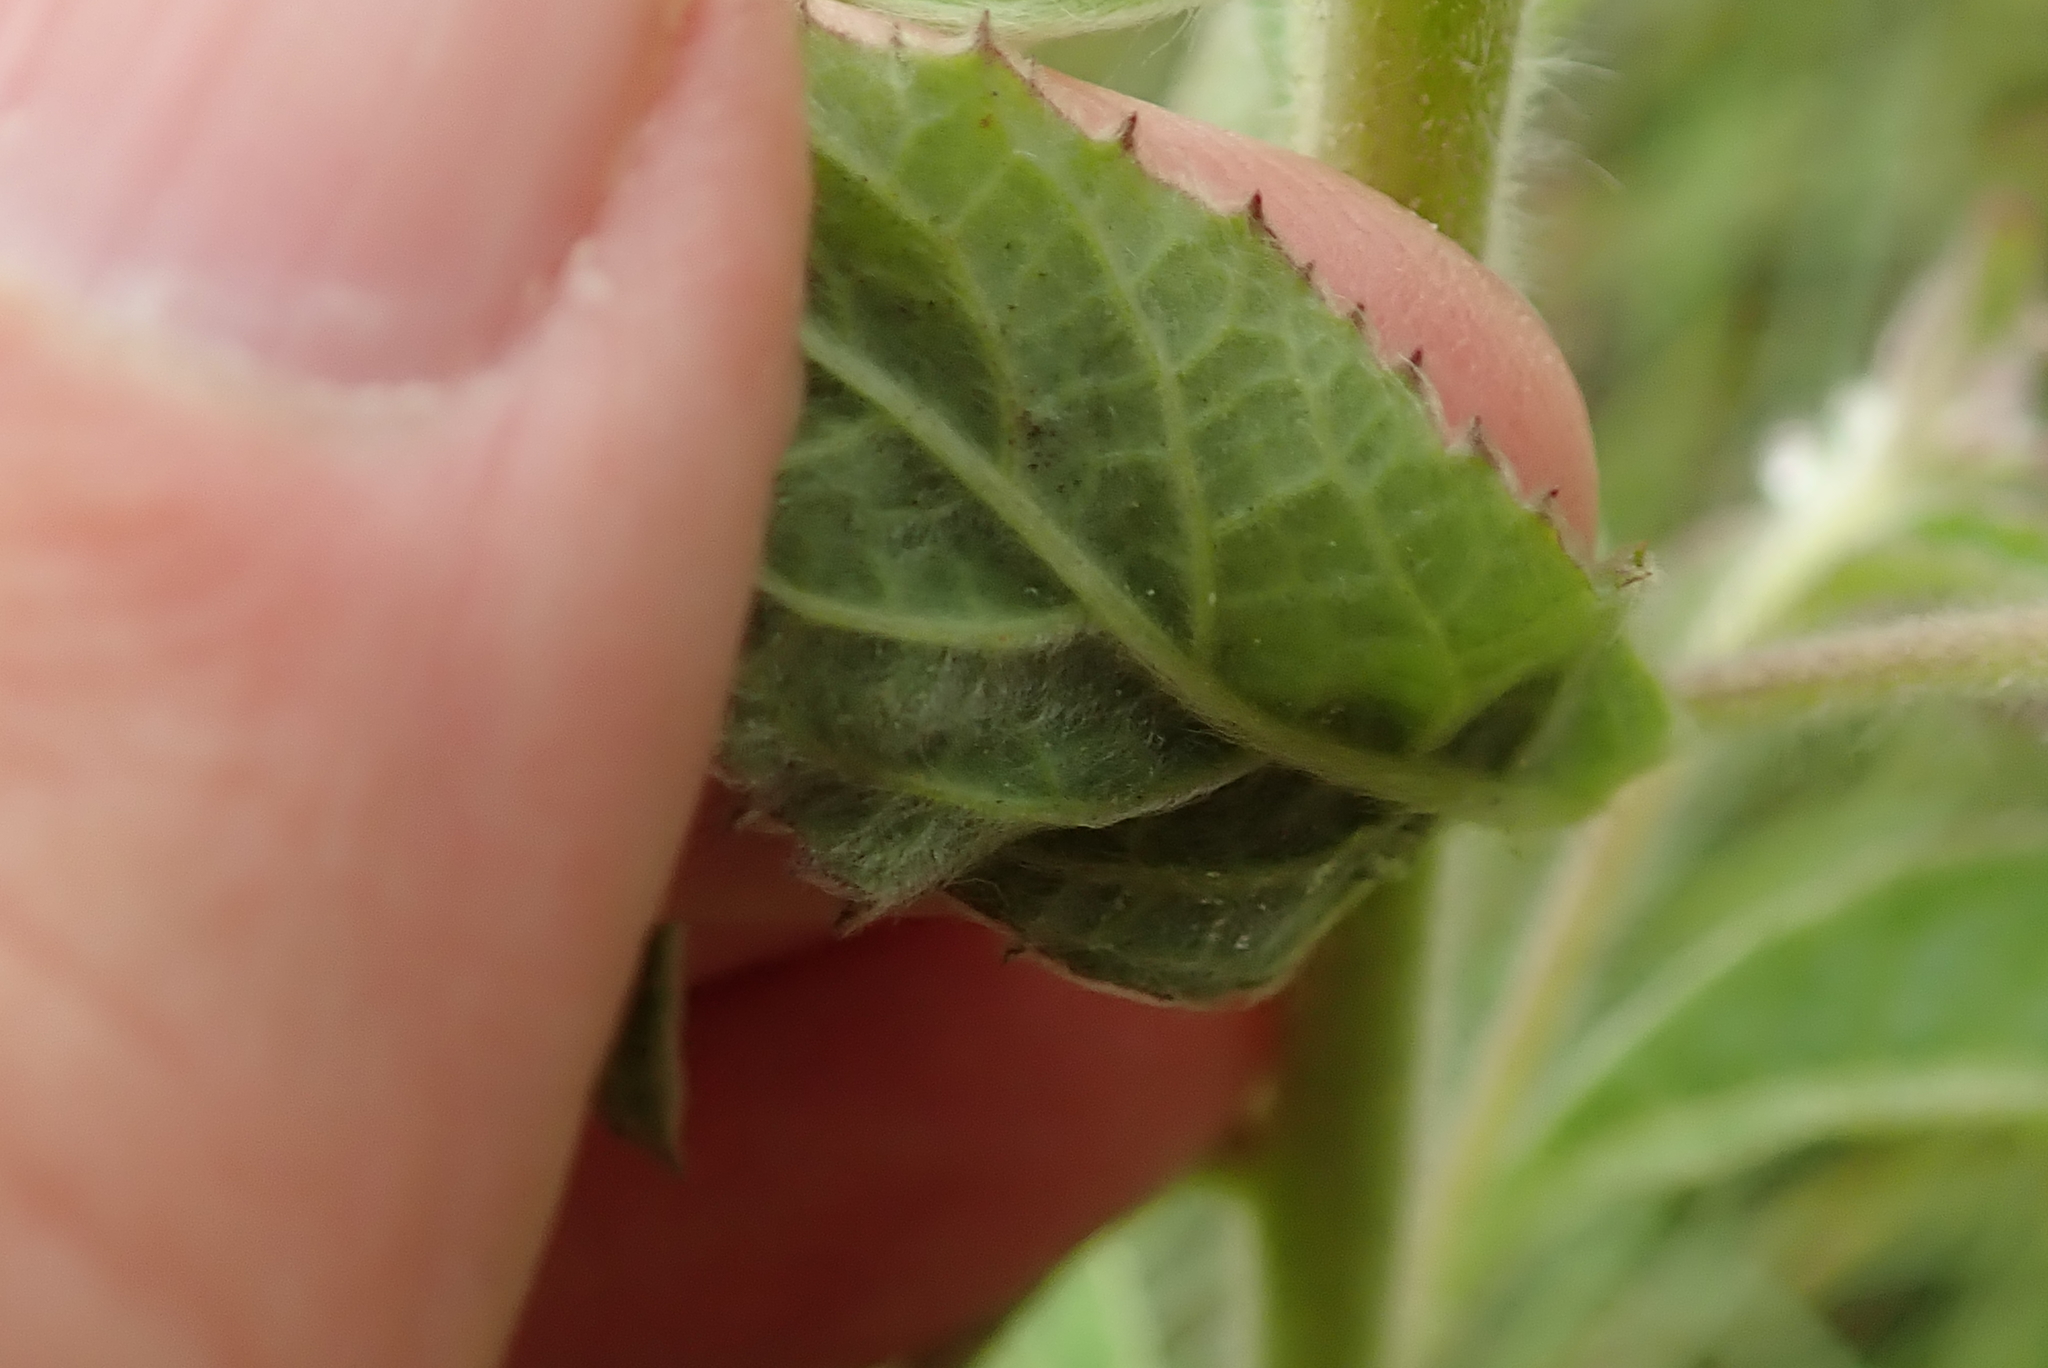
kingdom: Plantae
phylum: Tracheophyta
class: Magnoliopsida
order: Asterales
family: Asteraceae
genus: Blumea
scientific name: Blumea axillaris
